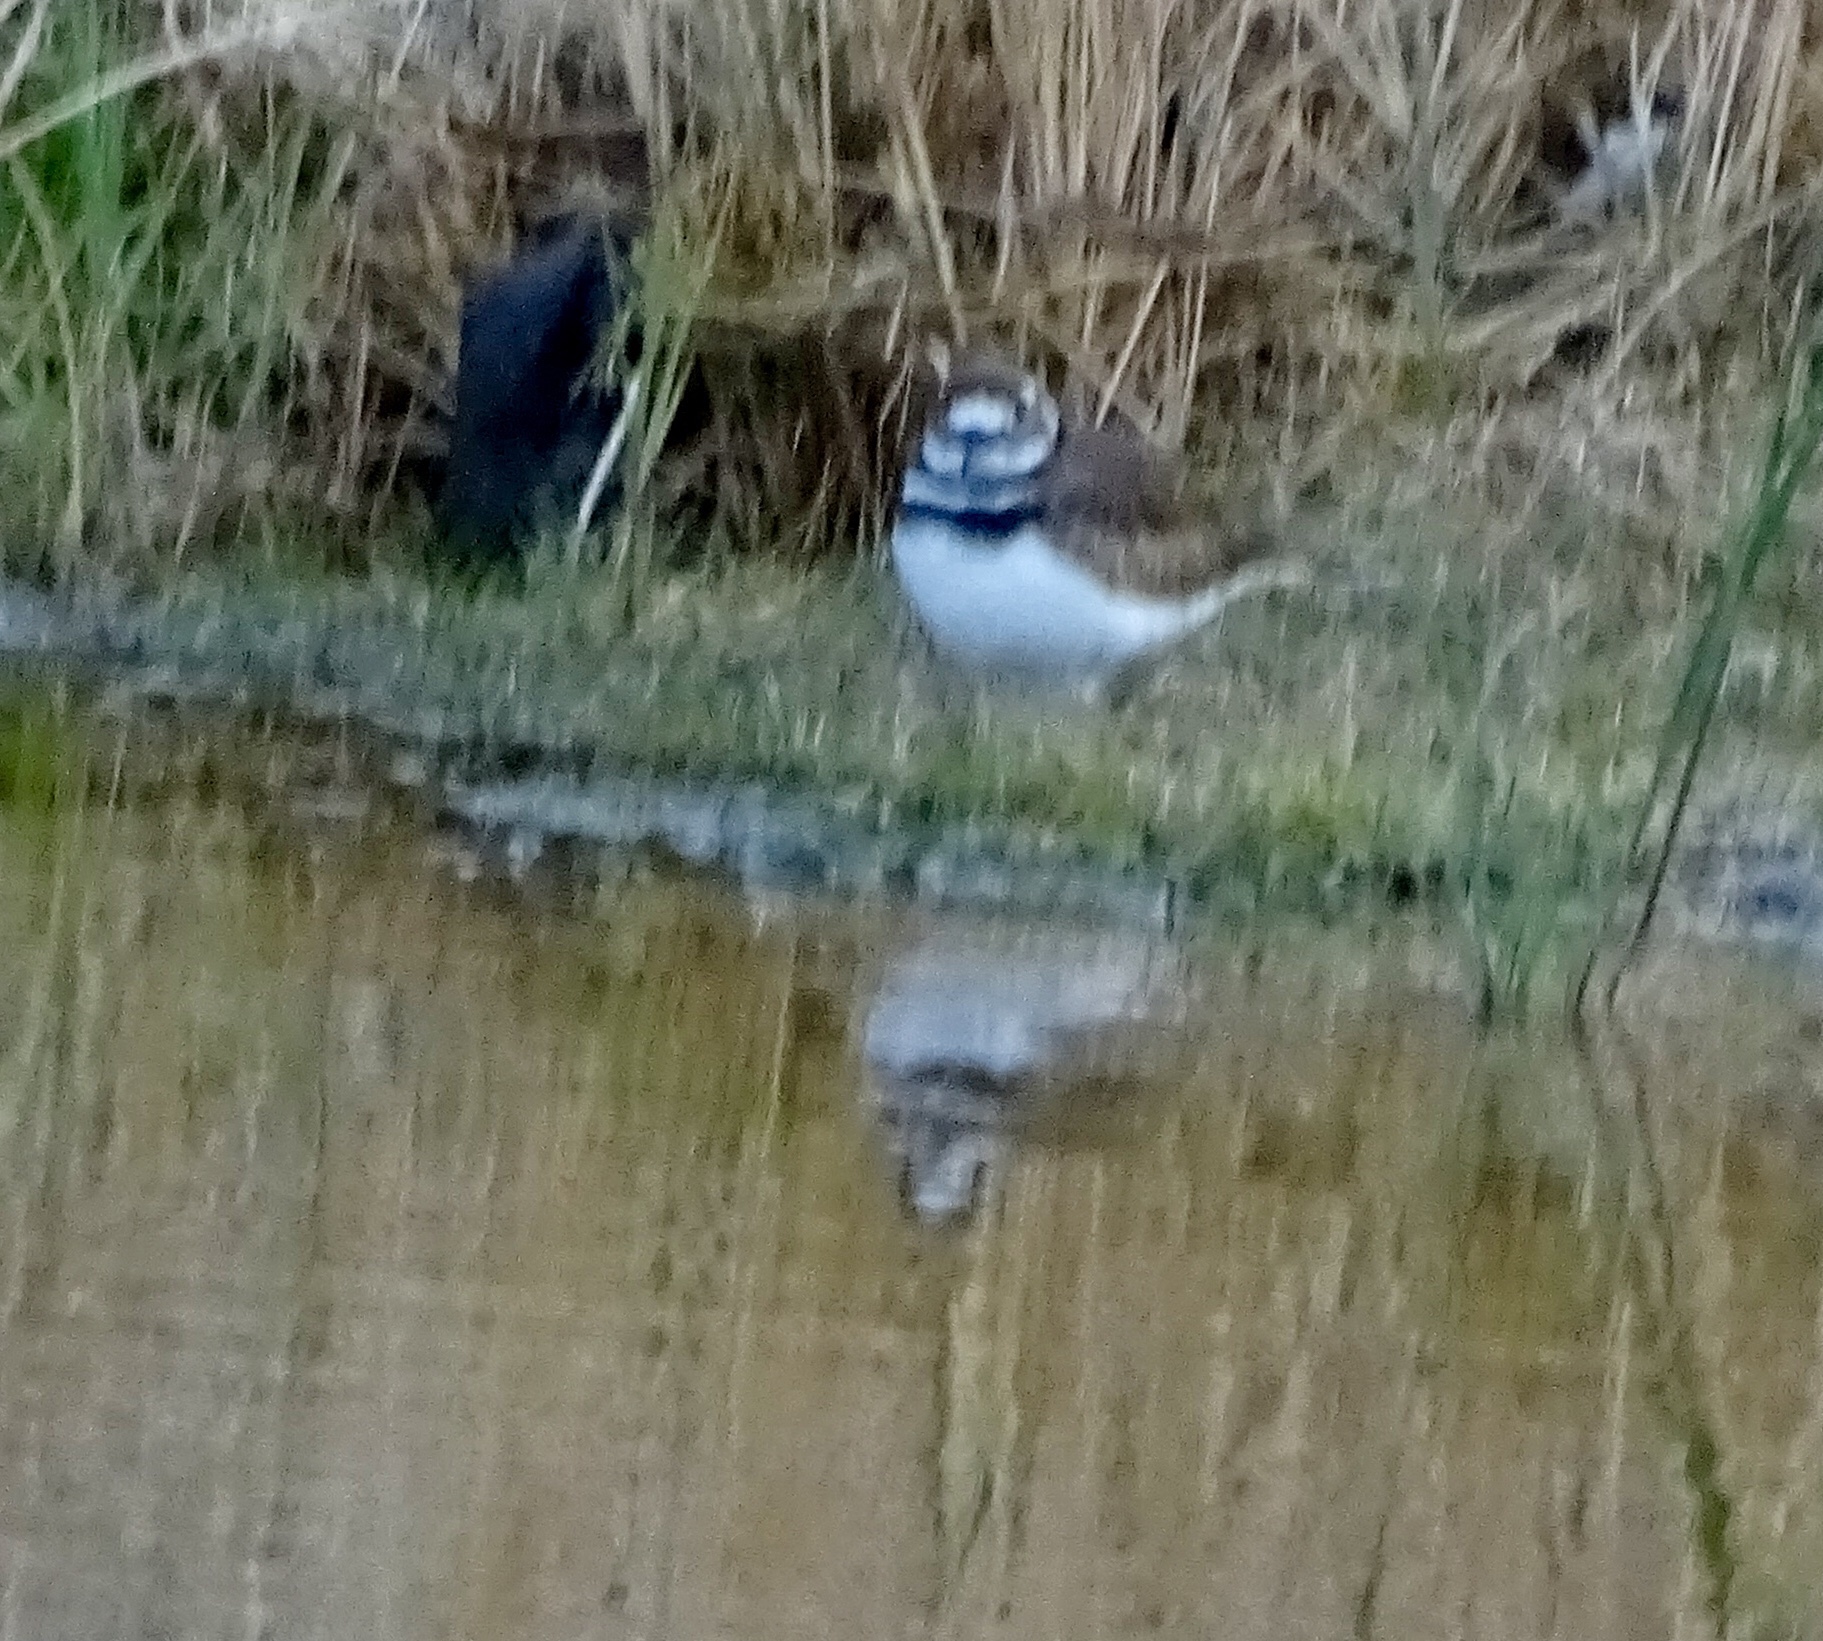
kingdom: Animalia
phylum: Chordata
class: Aves
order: Charadriiformes
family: Charadriidae
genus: Charadrius
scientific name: Charadrius vociferus
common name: Killdeer
